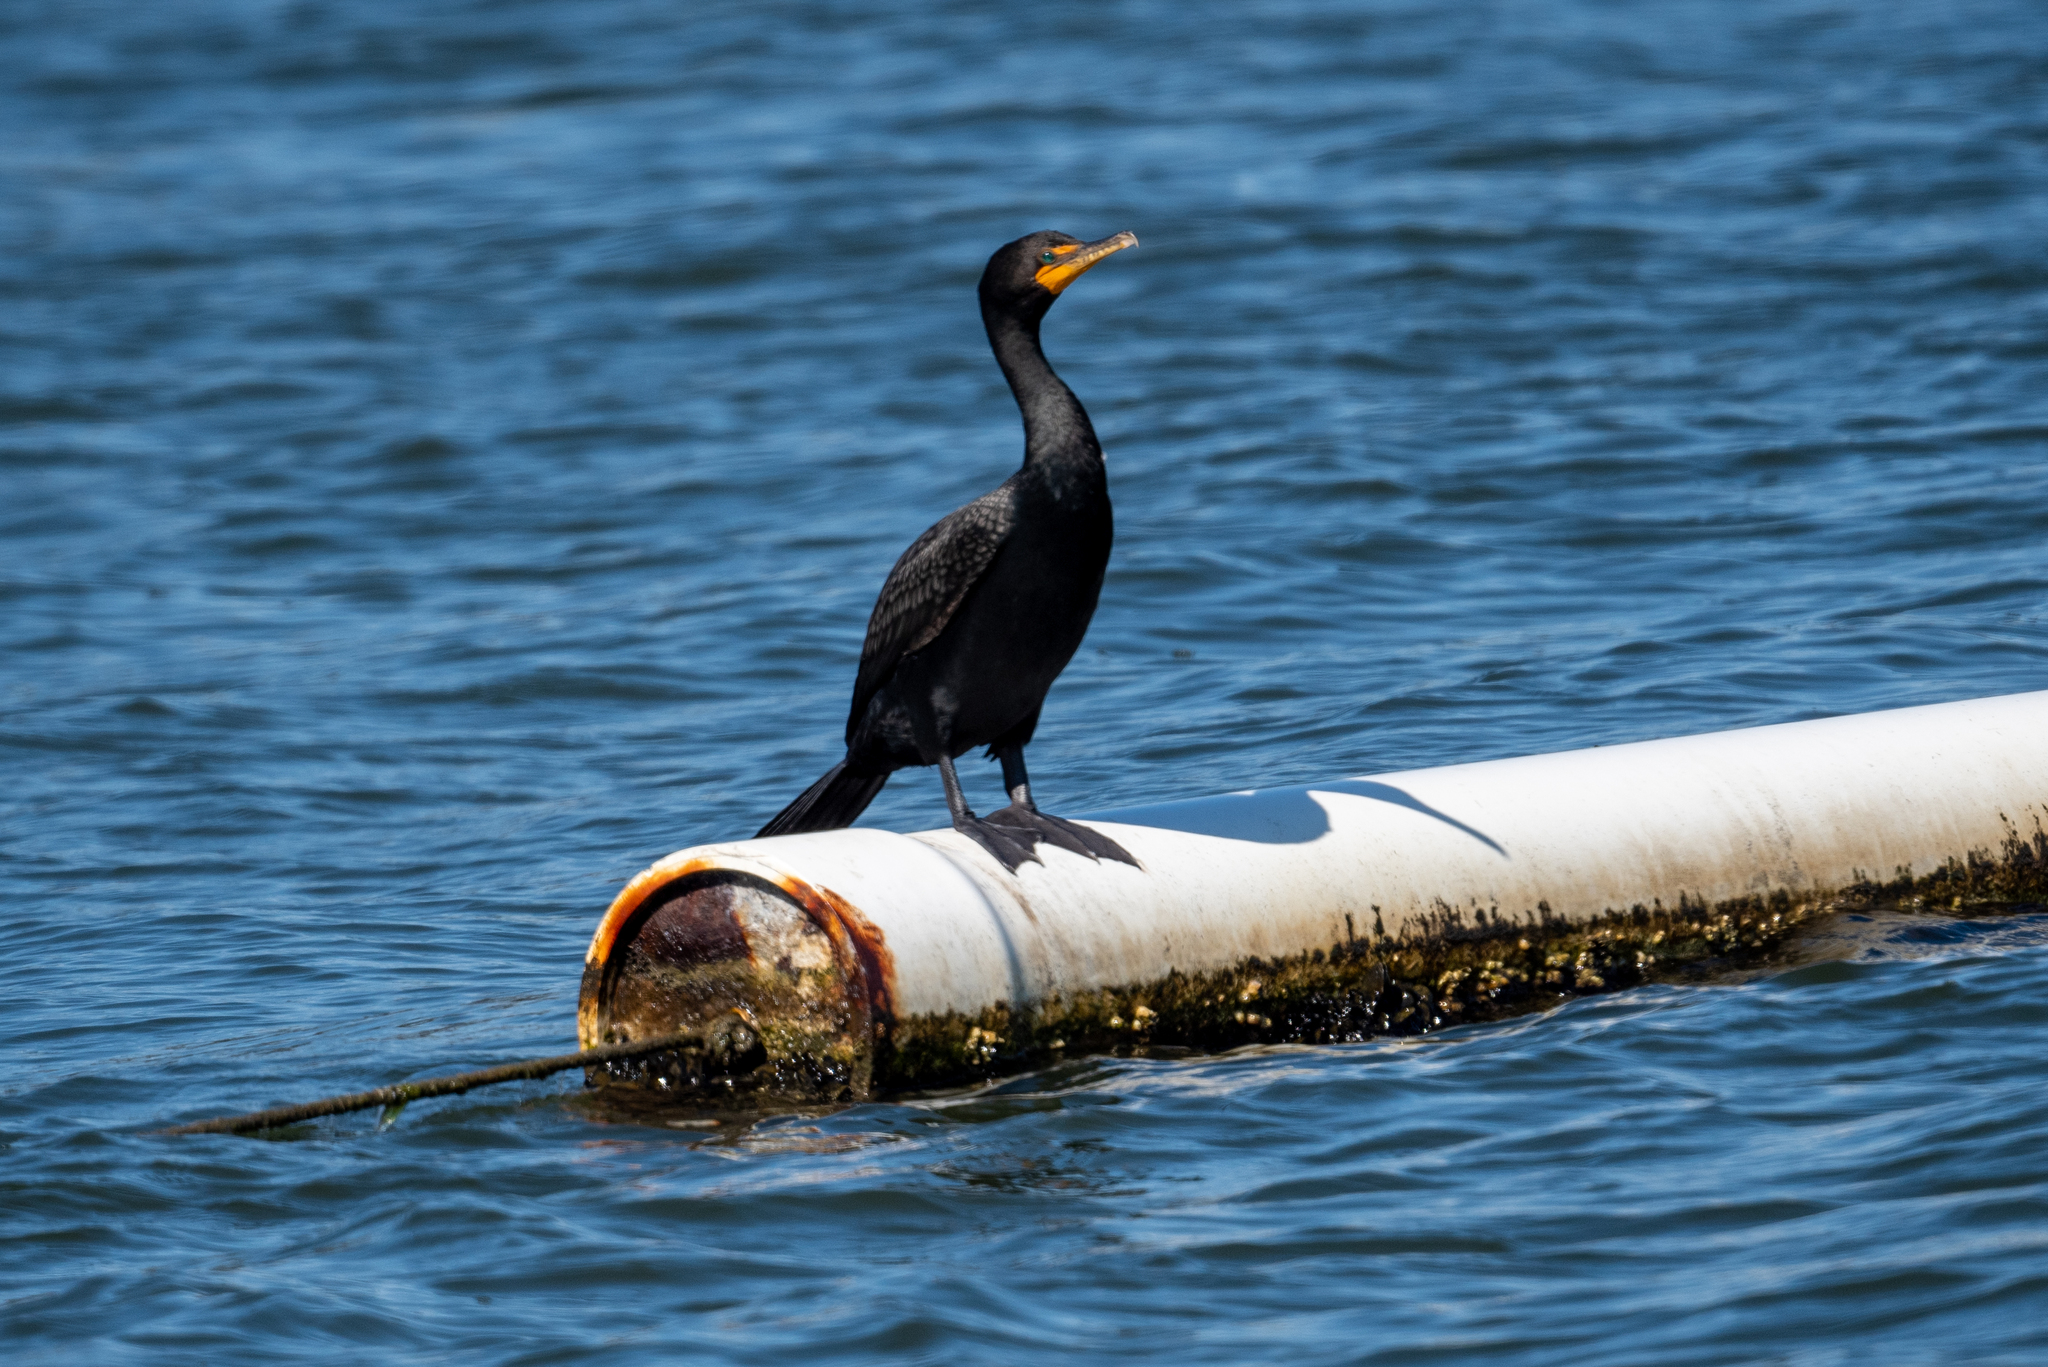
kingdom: Animalia
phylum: Chordata
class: Aves
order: Suliformes
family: Phalacrocoracidae
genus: Phalacrocorax
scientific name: Phalacrocorax auritus
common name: Double-crested cormorant
